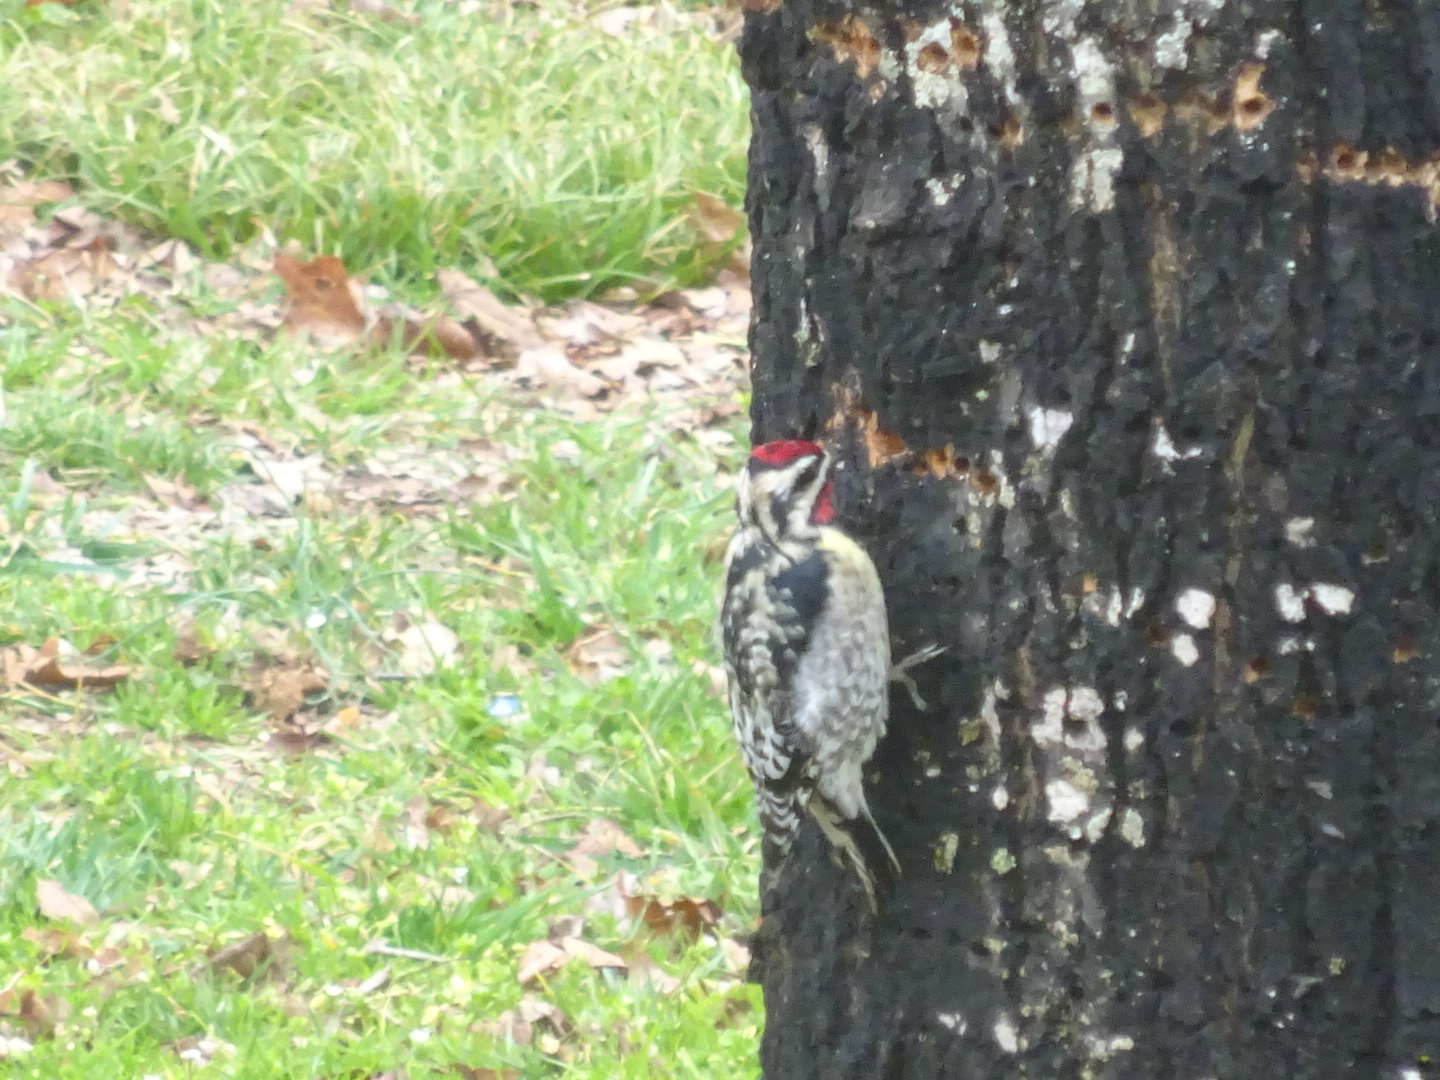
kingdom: Animalia
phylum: Chordata
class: Aves
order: Piciformes
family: Picidae
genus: Sphyrapicus
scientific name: Sphyrapicus varius
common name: Yellow-bellied sapsucker
